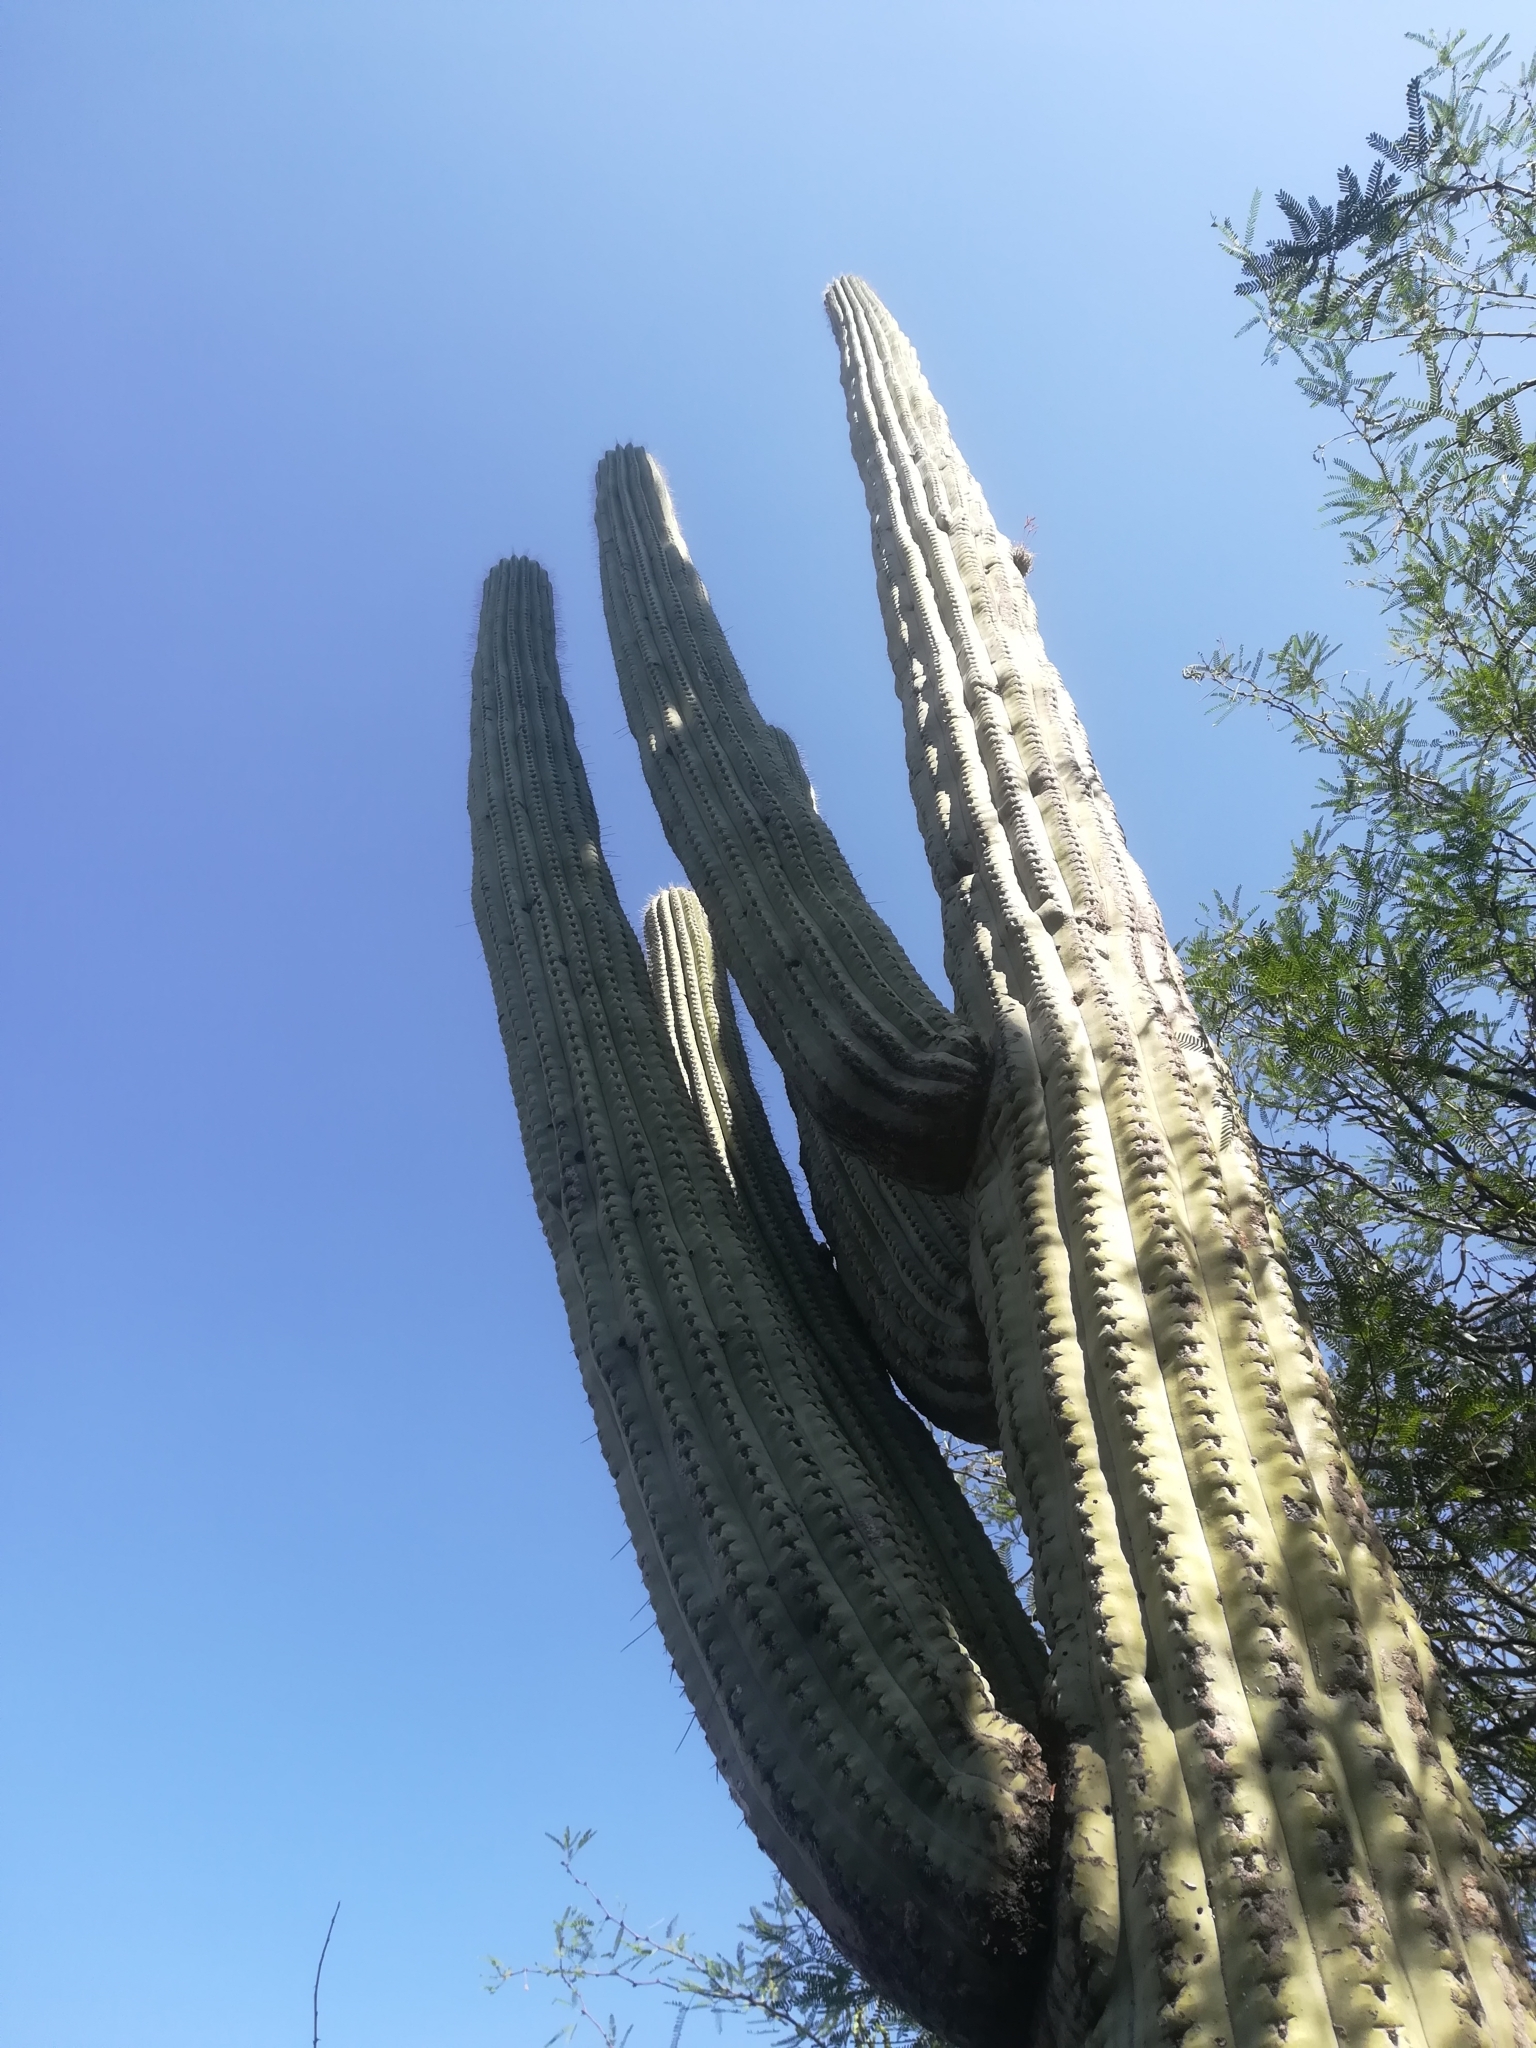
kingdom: Plantae
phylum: Tracheophyta
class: Magnoliopsida
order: Caryophyllales
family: Cactaceae
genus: Cephalocereus
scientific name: Cephalocereus tetetzo
